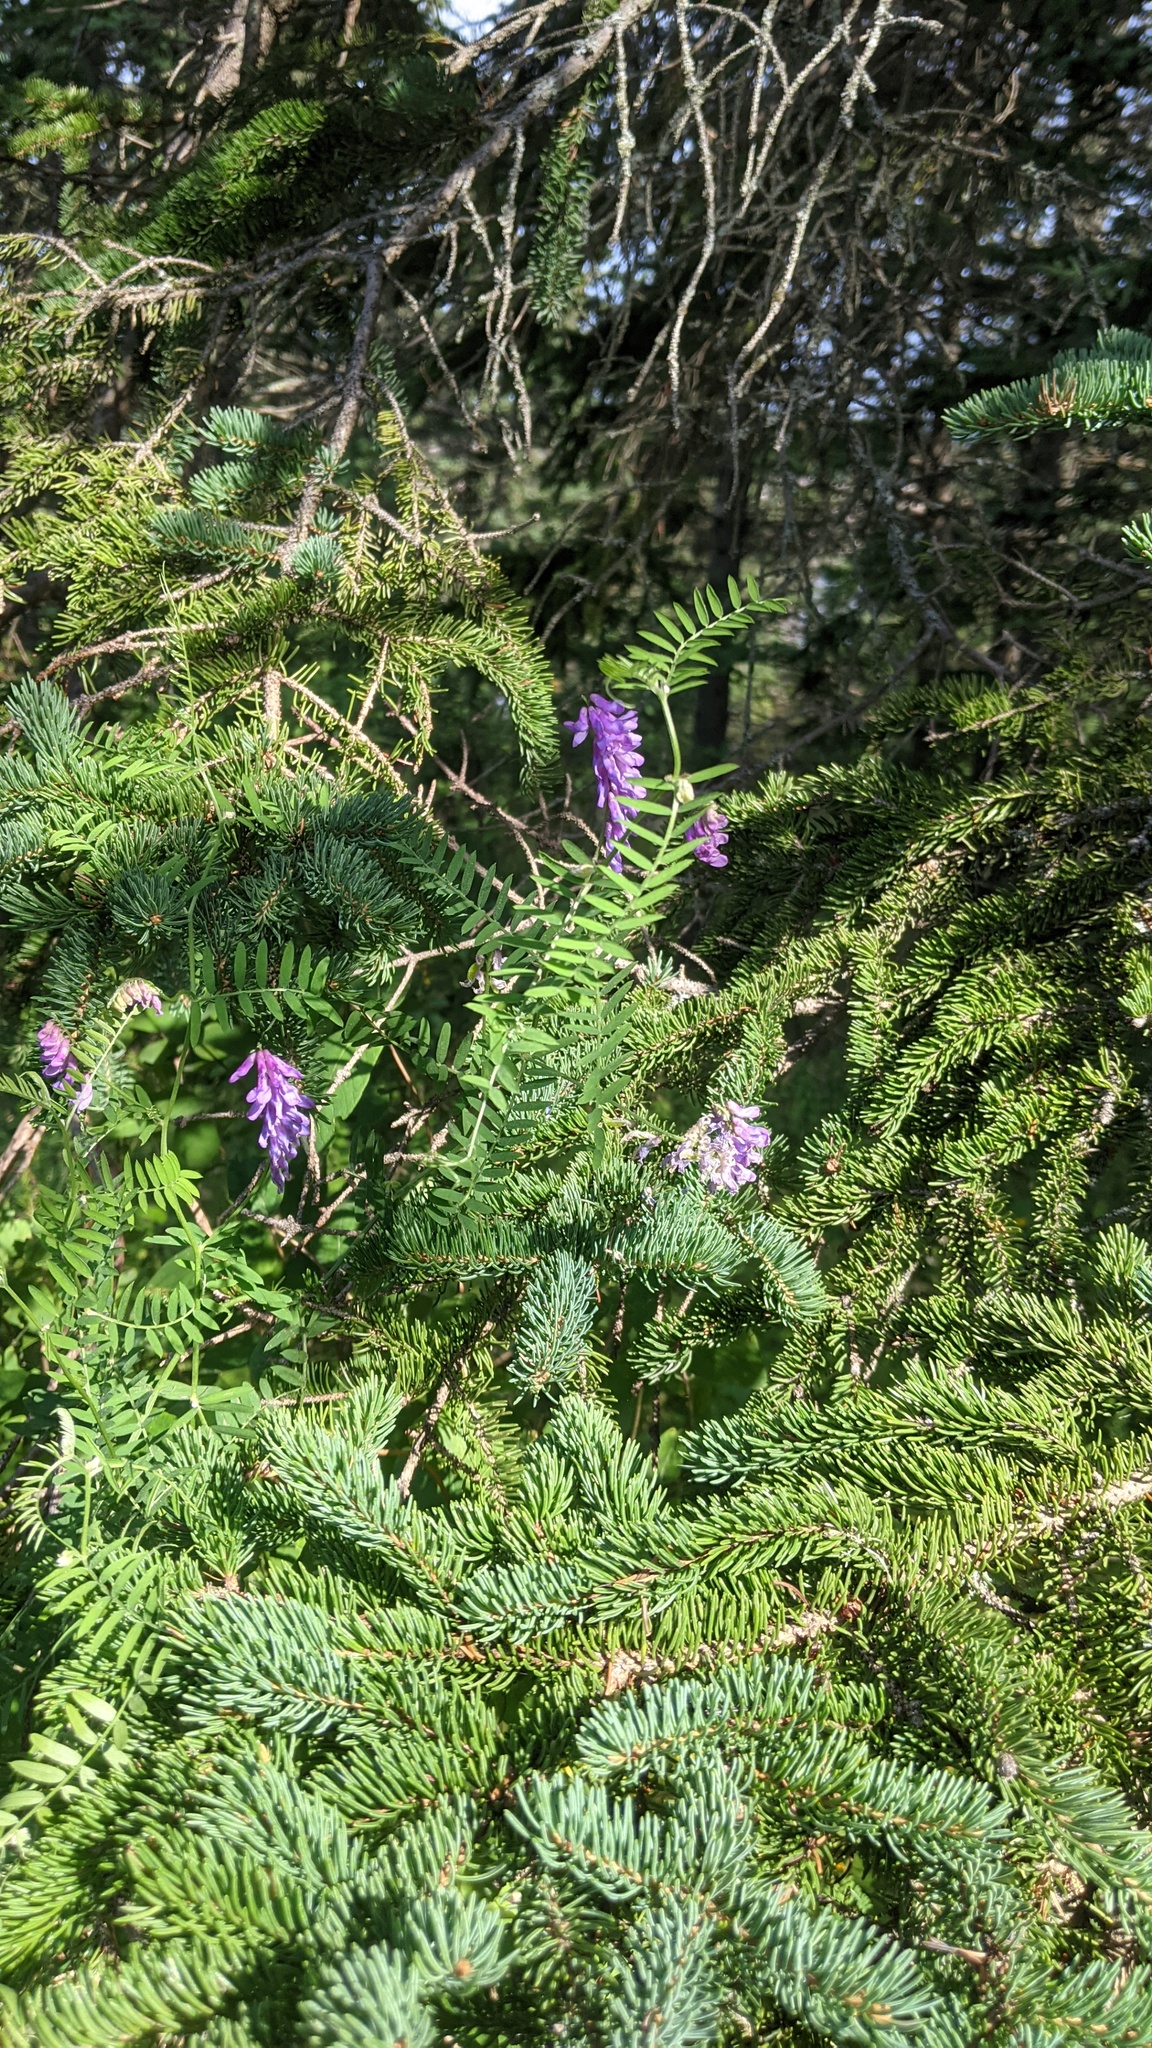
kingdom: Plantae
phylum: Tracheophyta
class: Magnoliopsida
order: Fabales
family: Fabaceae
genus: Vicia
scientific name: Vicia cracca
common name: Bird vetch
